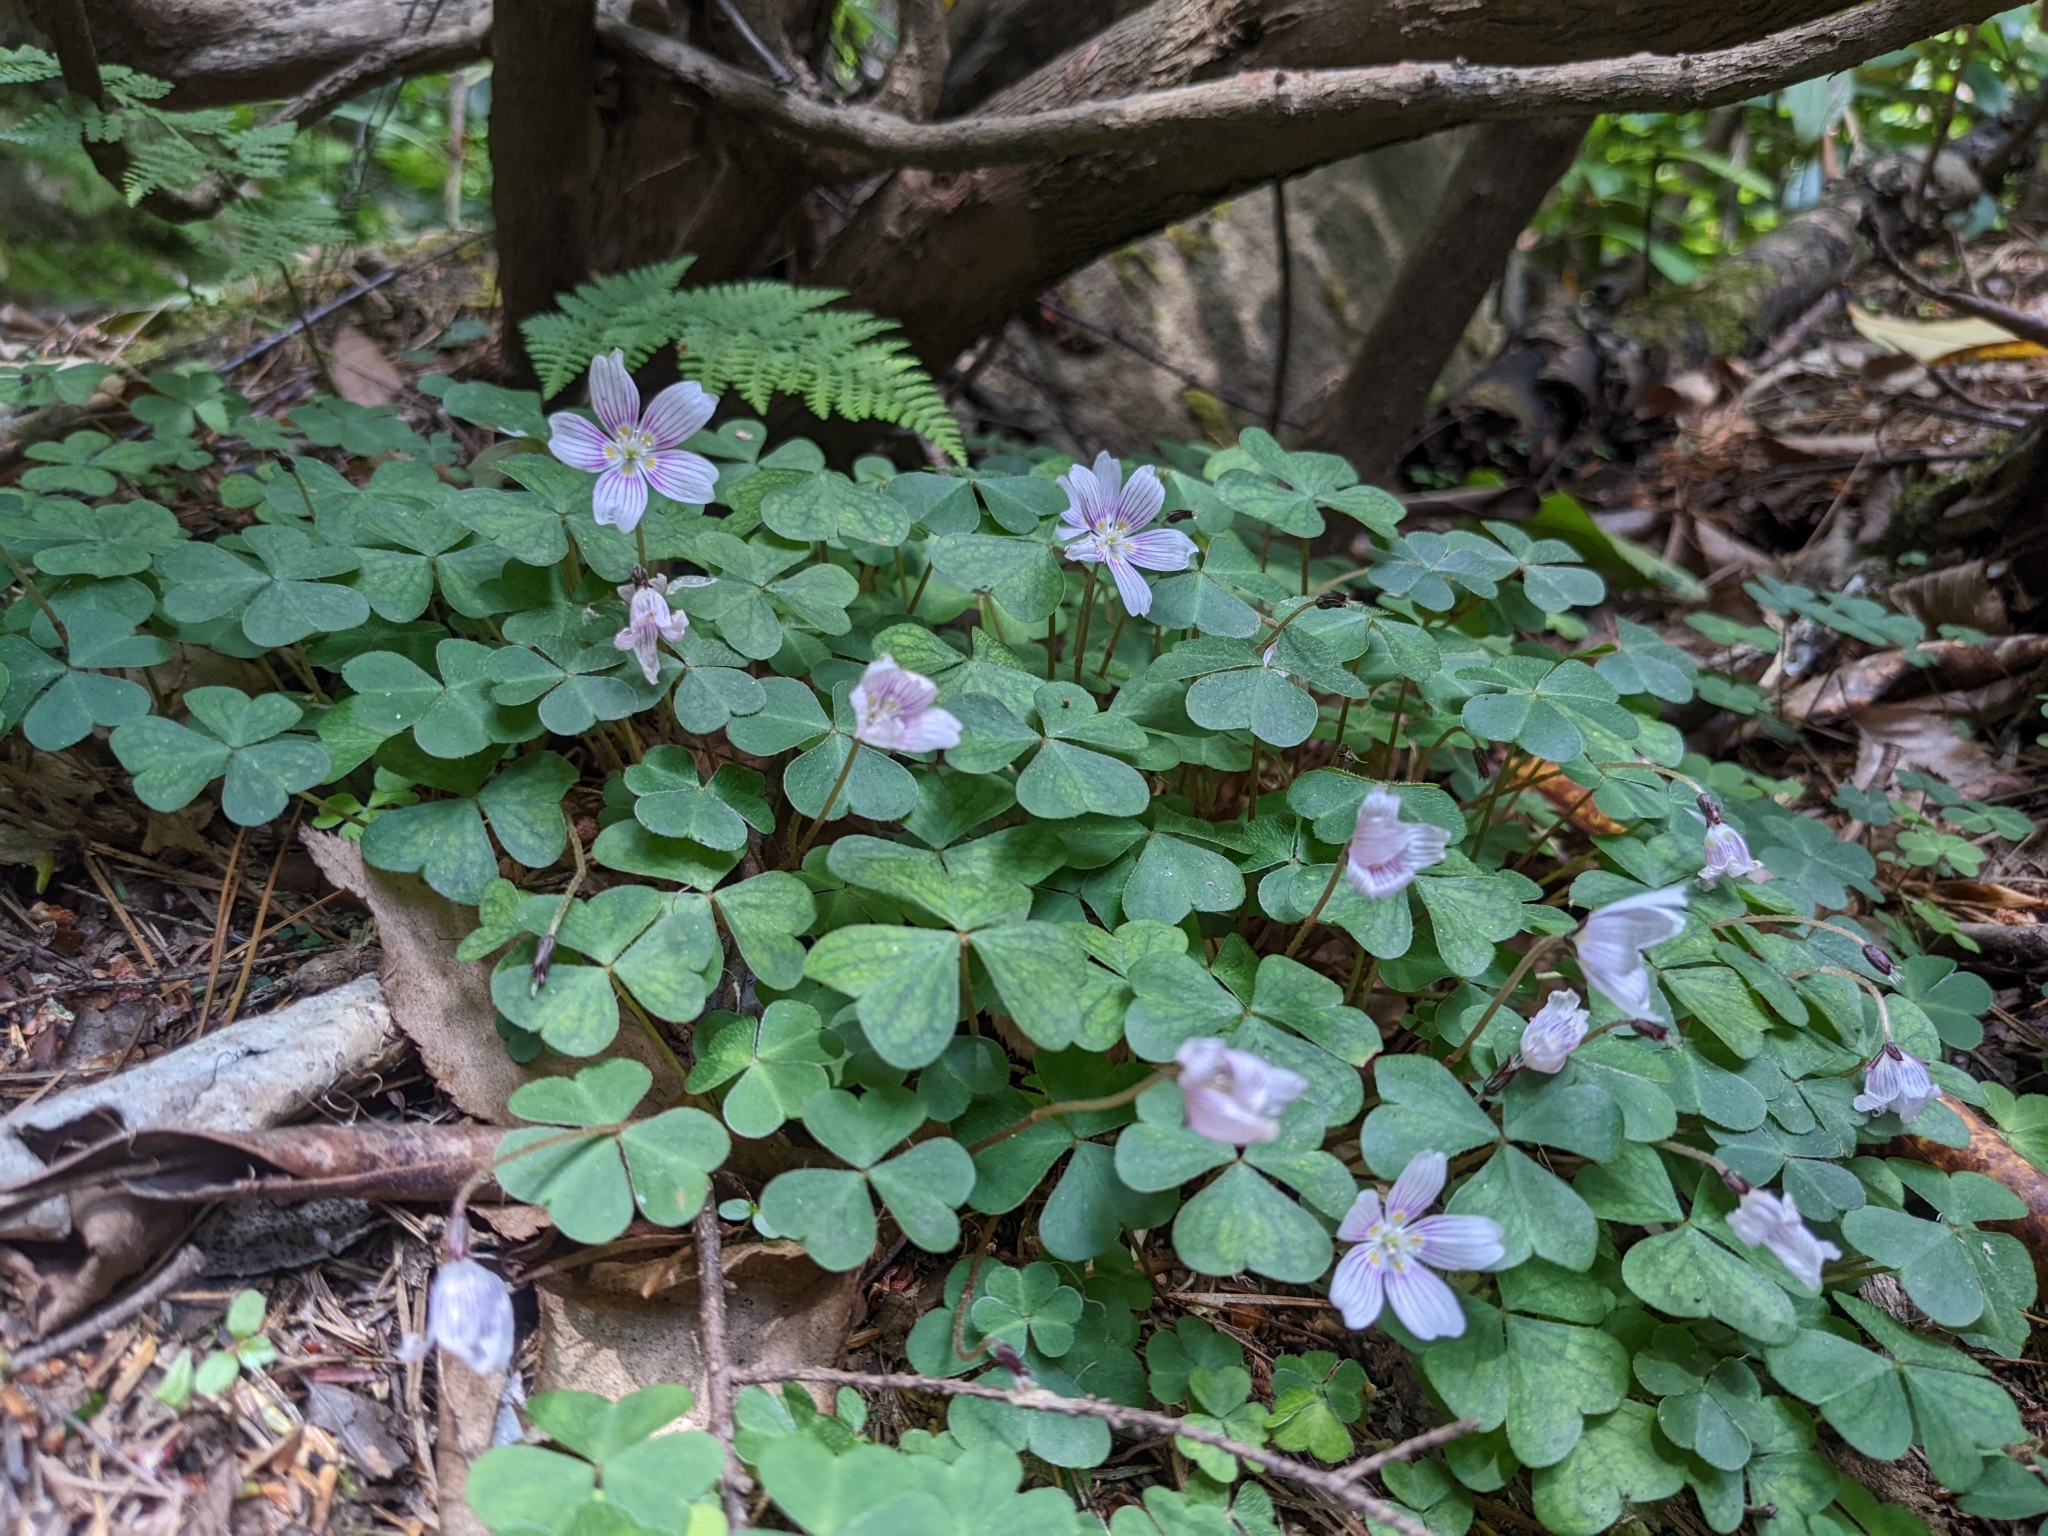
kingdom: Plantae
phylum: Tracheophyta
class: Magnoliopsida
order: Oxalidales
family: Oxalidaceae
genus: Oxalis
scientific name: Oxalis montana
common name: American wood-sorrel
